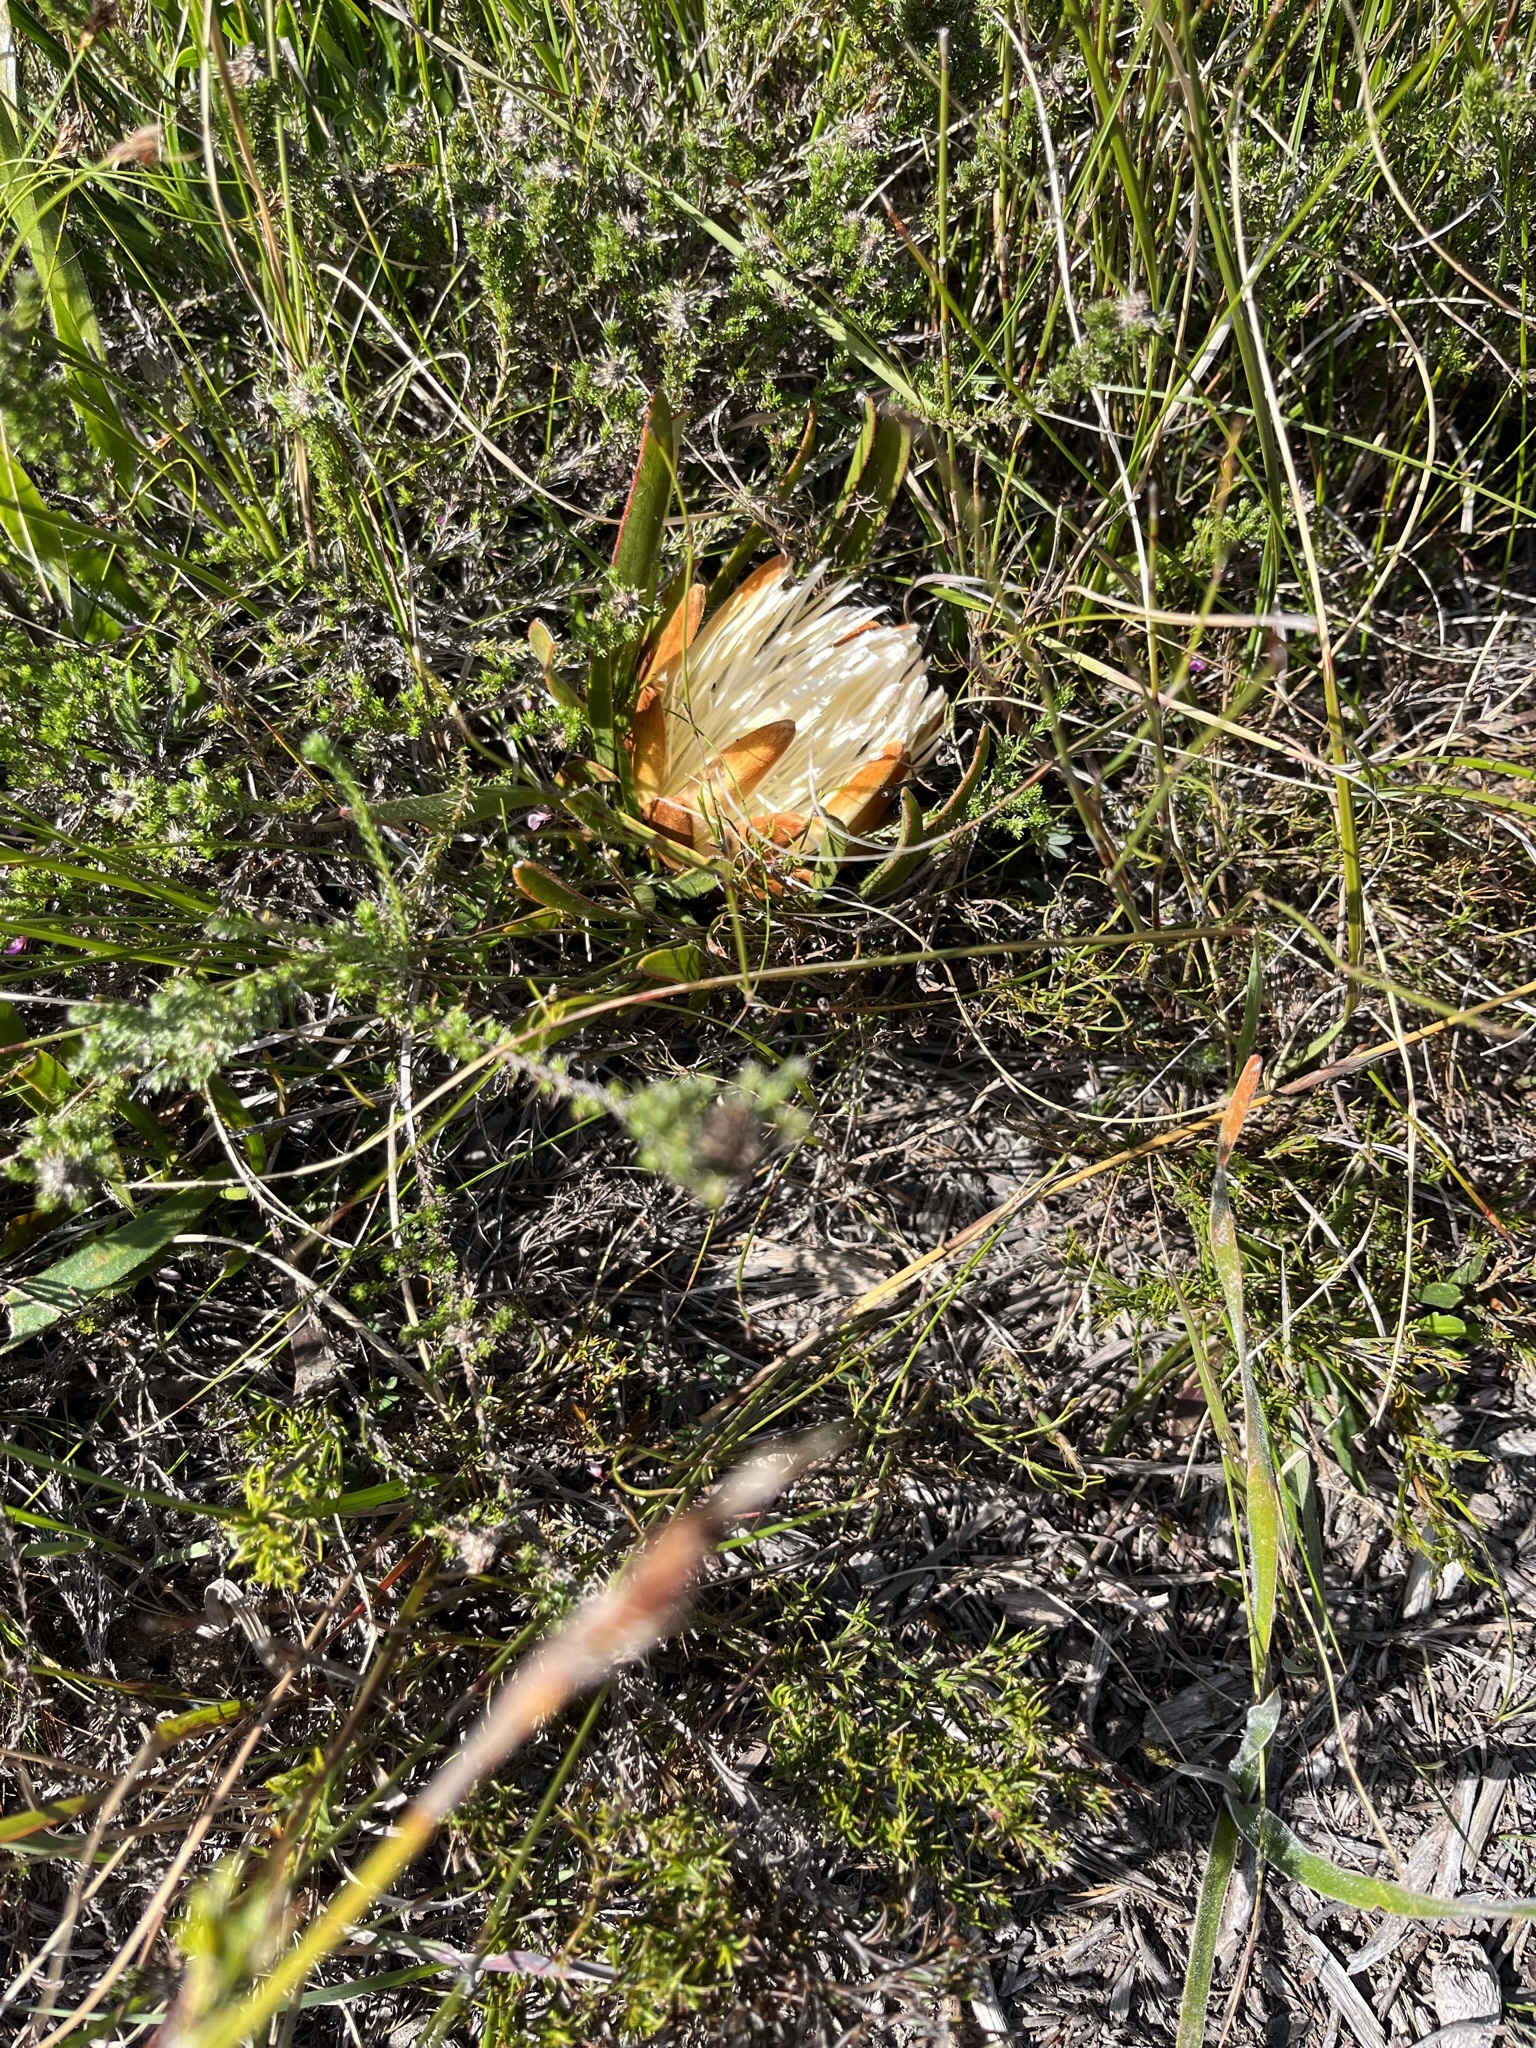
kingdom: Plantae
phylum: Tracheophyta
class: Magnoliopsida
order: Proteales
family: Proteaceae
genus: Protea
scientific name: Protea aspera
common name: Rough-leaf sugarbush
